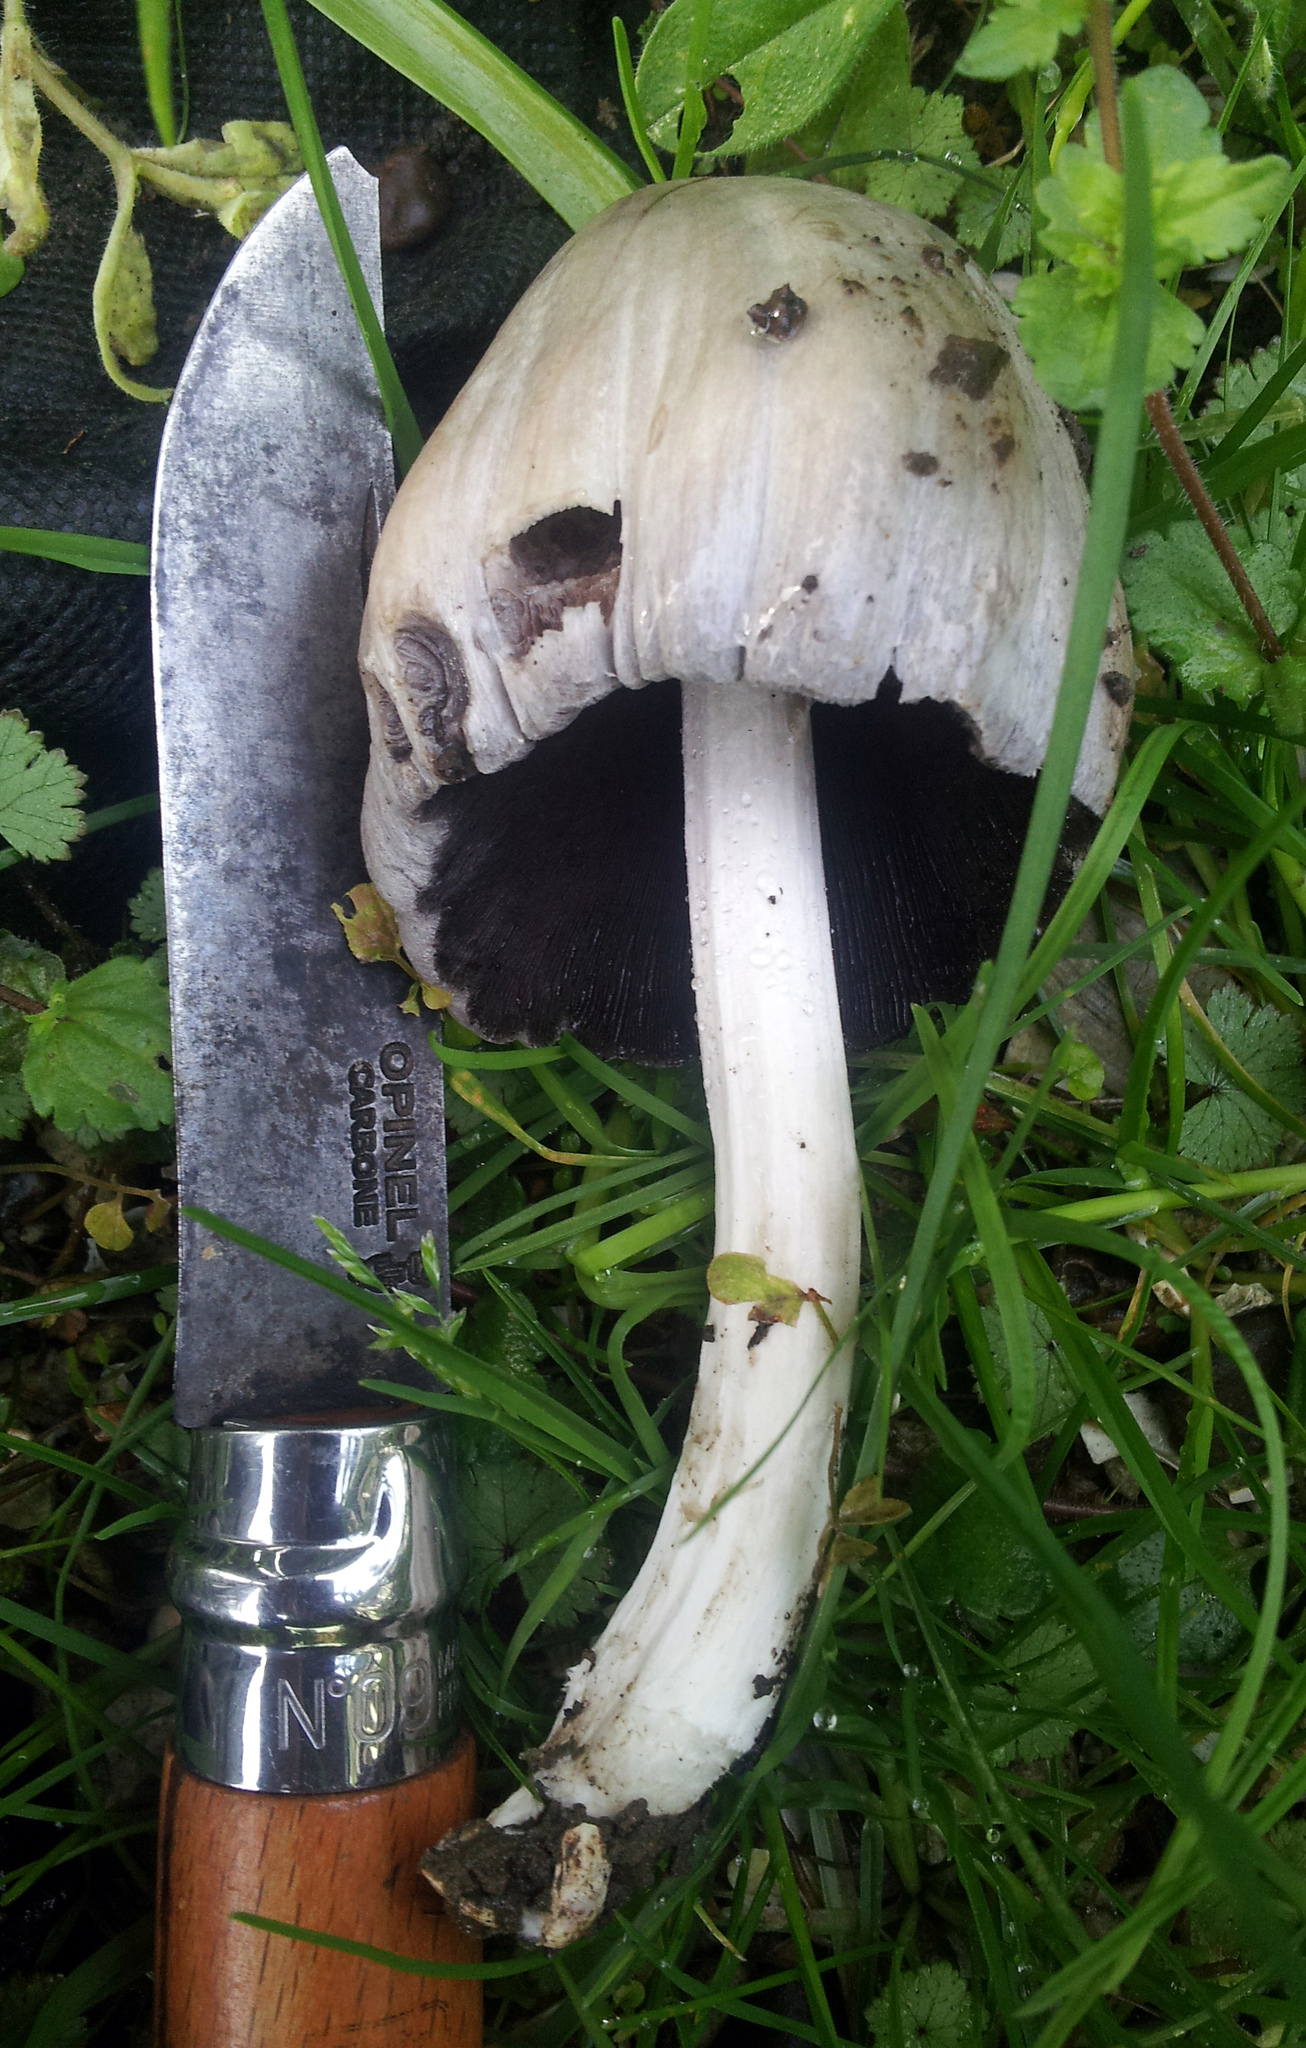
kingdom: Fungi
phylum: Basidiomycota
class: Agaricomycetes
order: Agaricales
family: Psathyrellaceae
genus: Coprinopsis
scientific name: Coprinopsis atramentaria
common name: Common ink-cap
